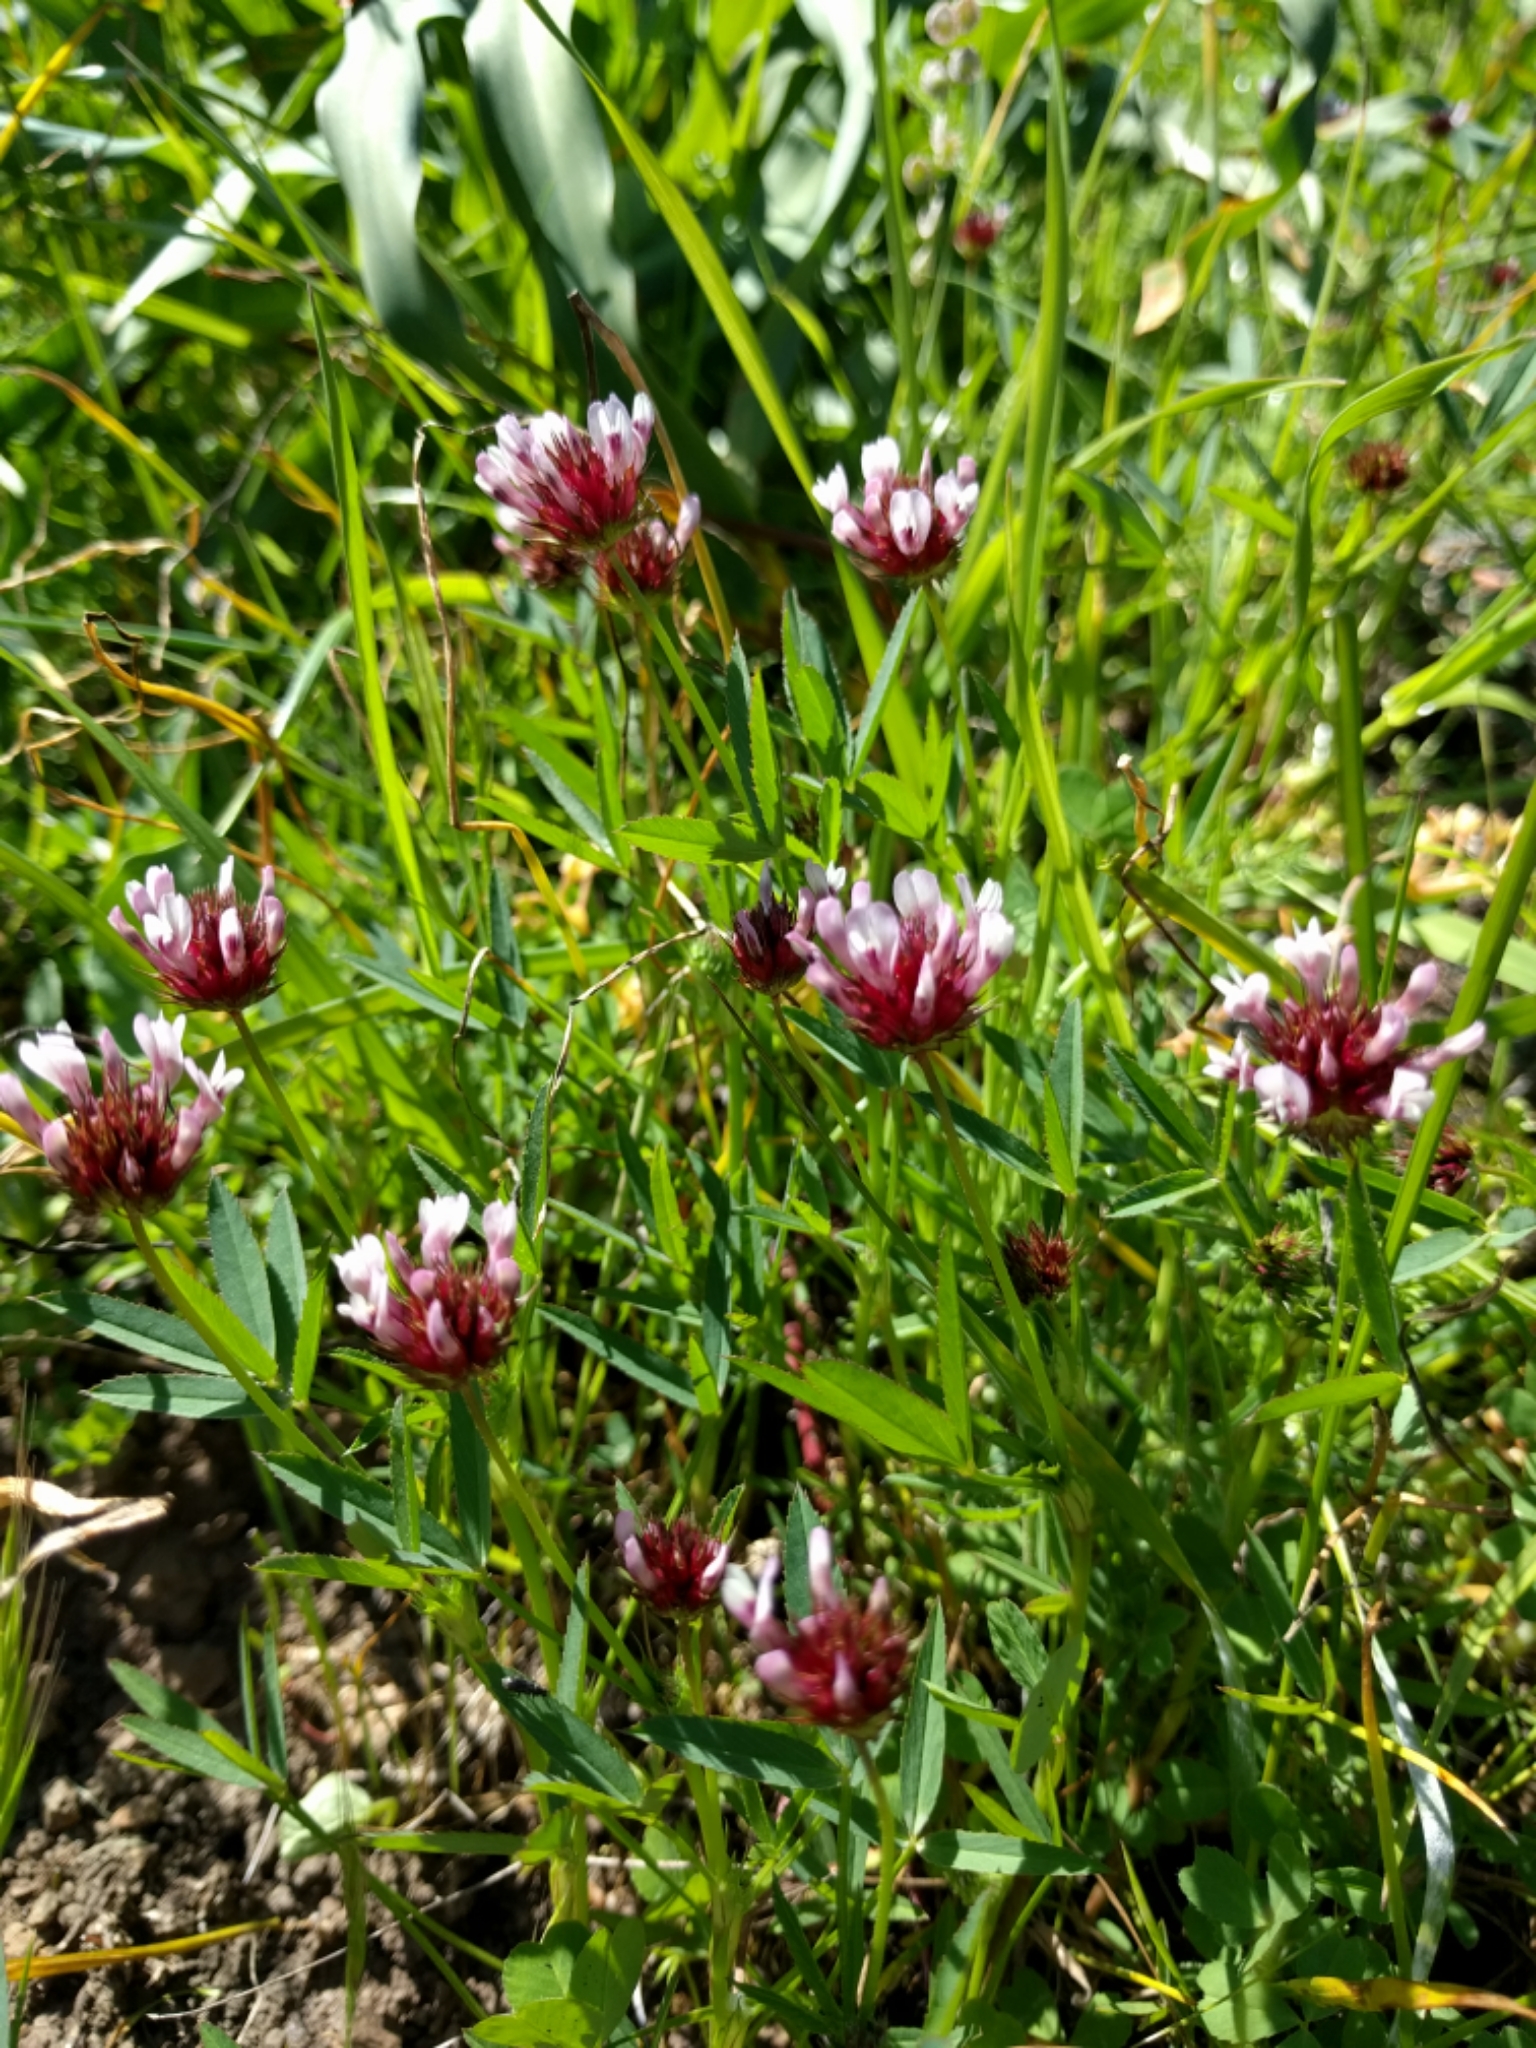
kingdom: Plantae
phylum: Tracheophyta
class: Magnoliopsida
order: Fabales
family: Fabaceae
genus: Trifolium
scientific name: Trifolium willdenovii
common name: Tomcat clover
